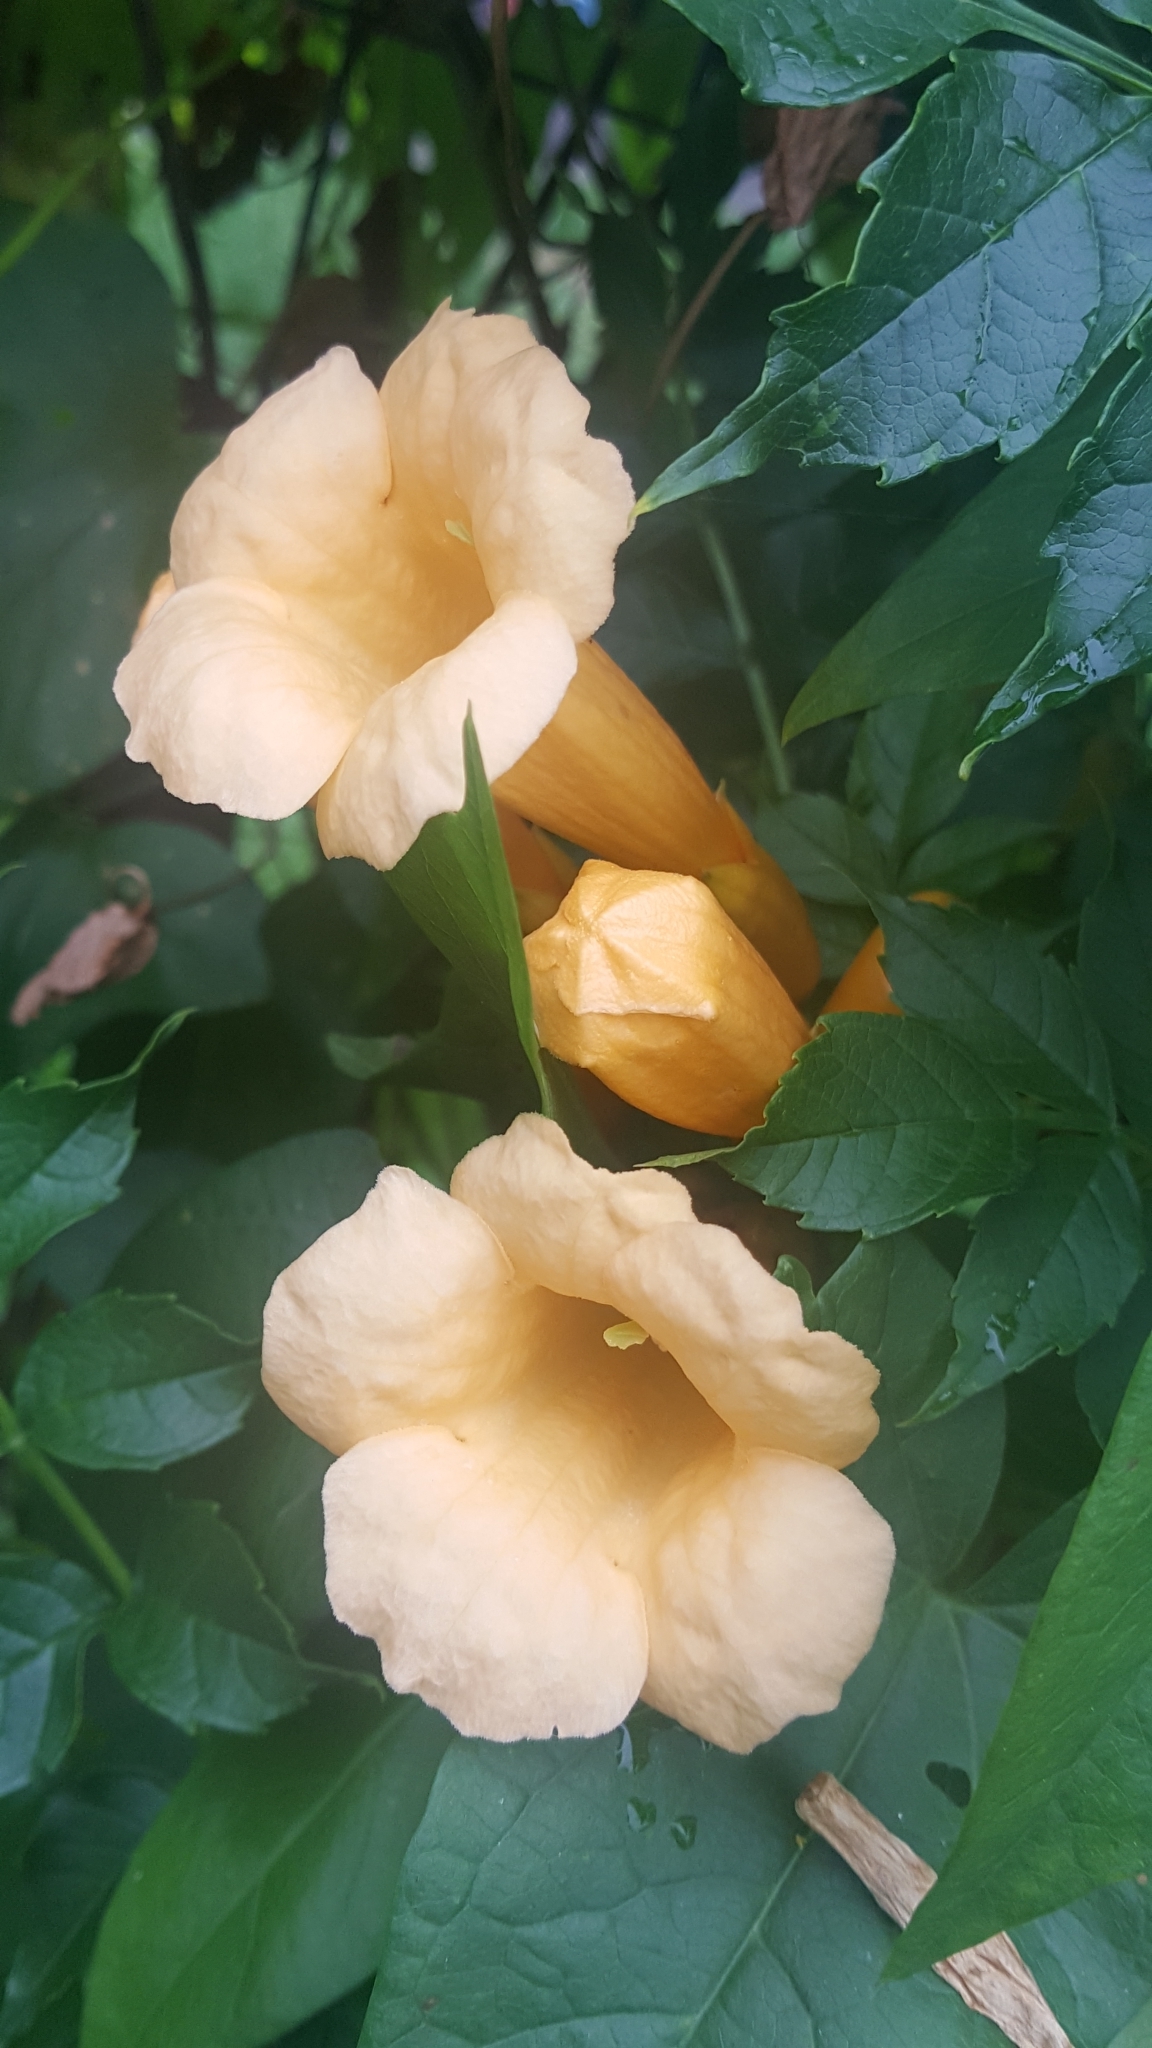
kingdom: Plantae
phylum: Tracheophyta
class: Magnoliopsida
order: Lamiales
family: Bignoniaceae
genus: Campsis
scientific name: Campsis radicans
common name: Trumpet-creeper
